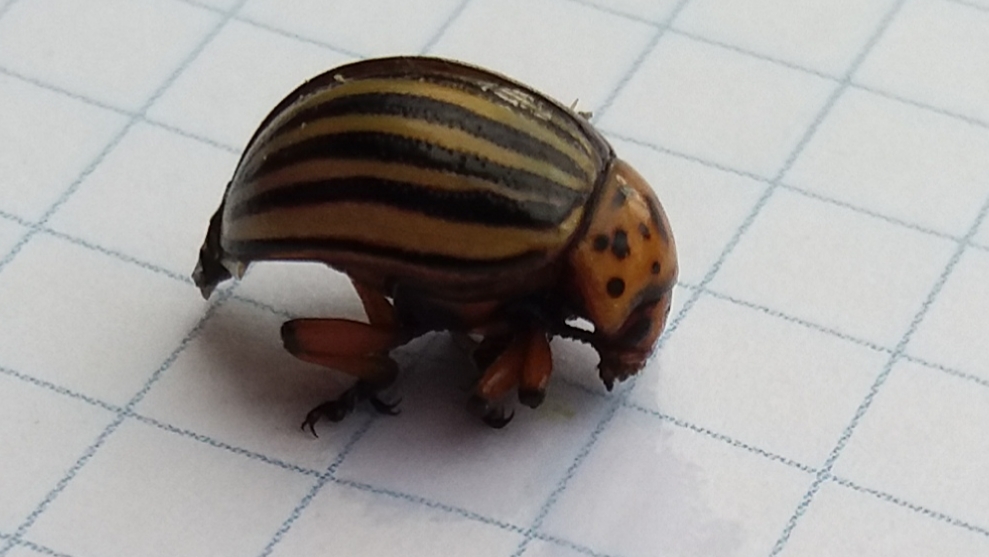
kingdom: Animalia
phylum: Arthropoda
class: Insecta
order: Coleoptera
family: Chrysomelidae
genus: Leptinotarsa
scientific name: Leptinotarsa decemlineata
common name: Colorado potato beetle
